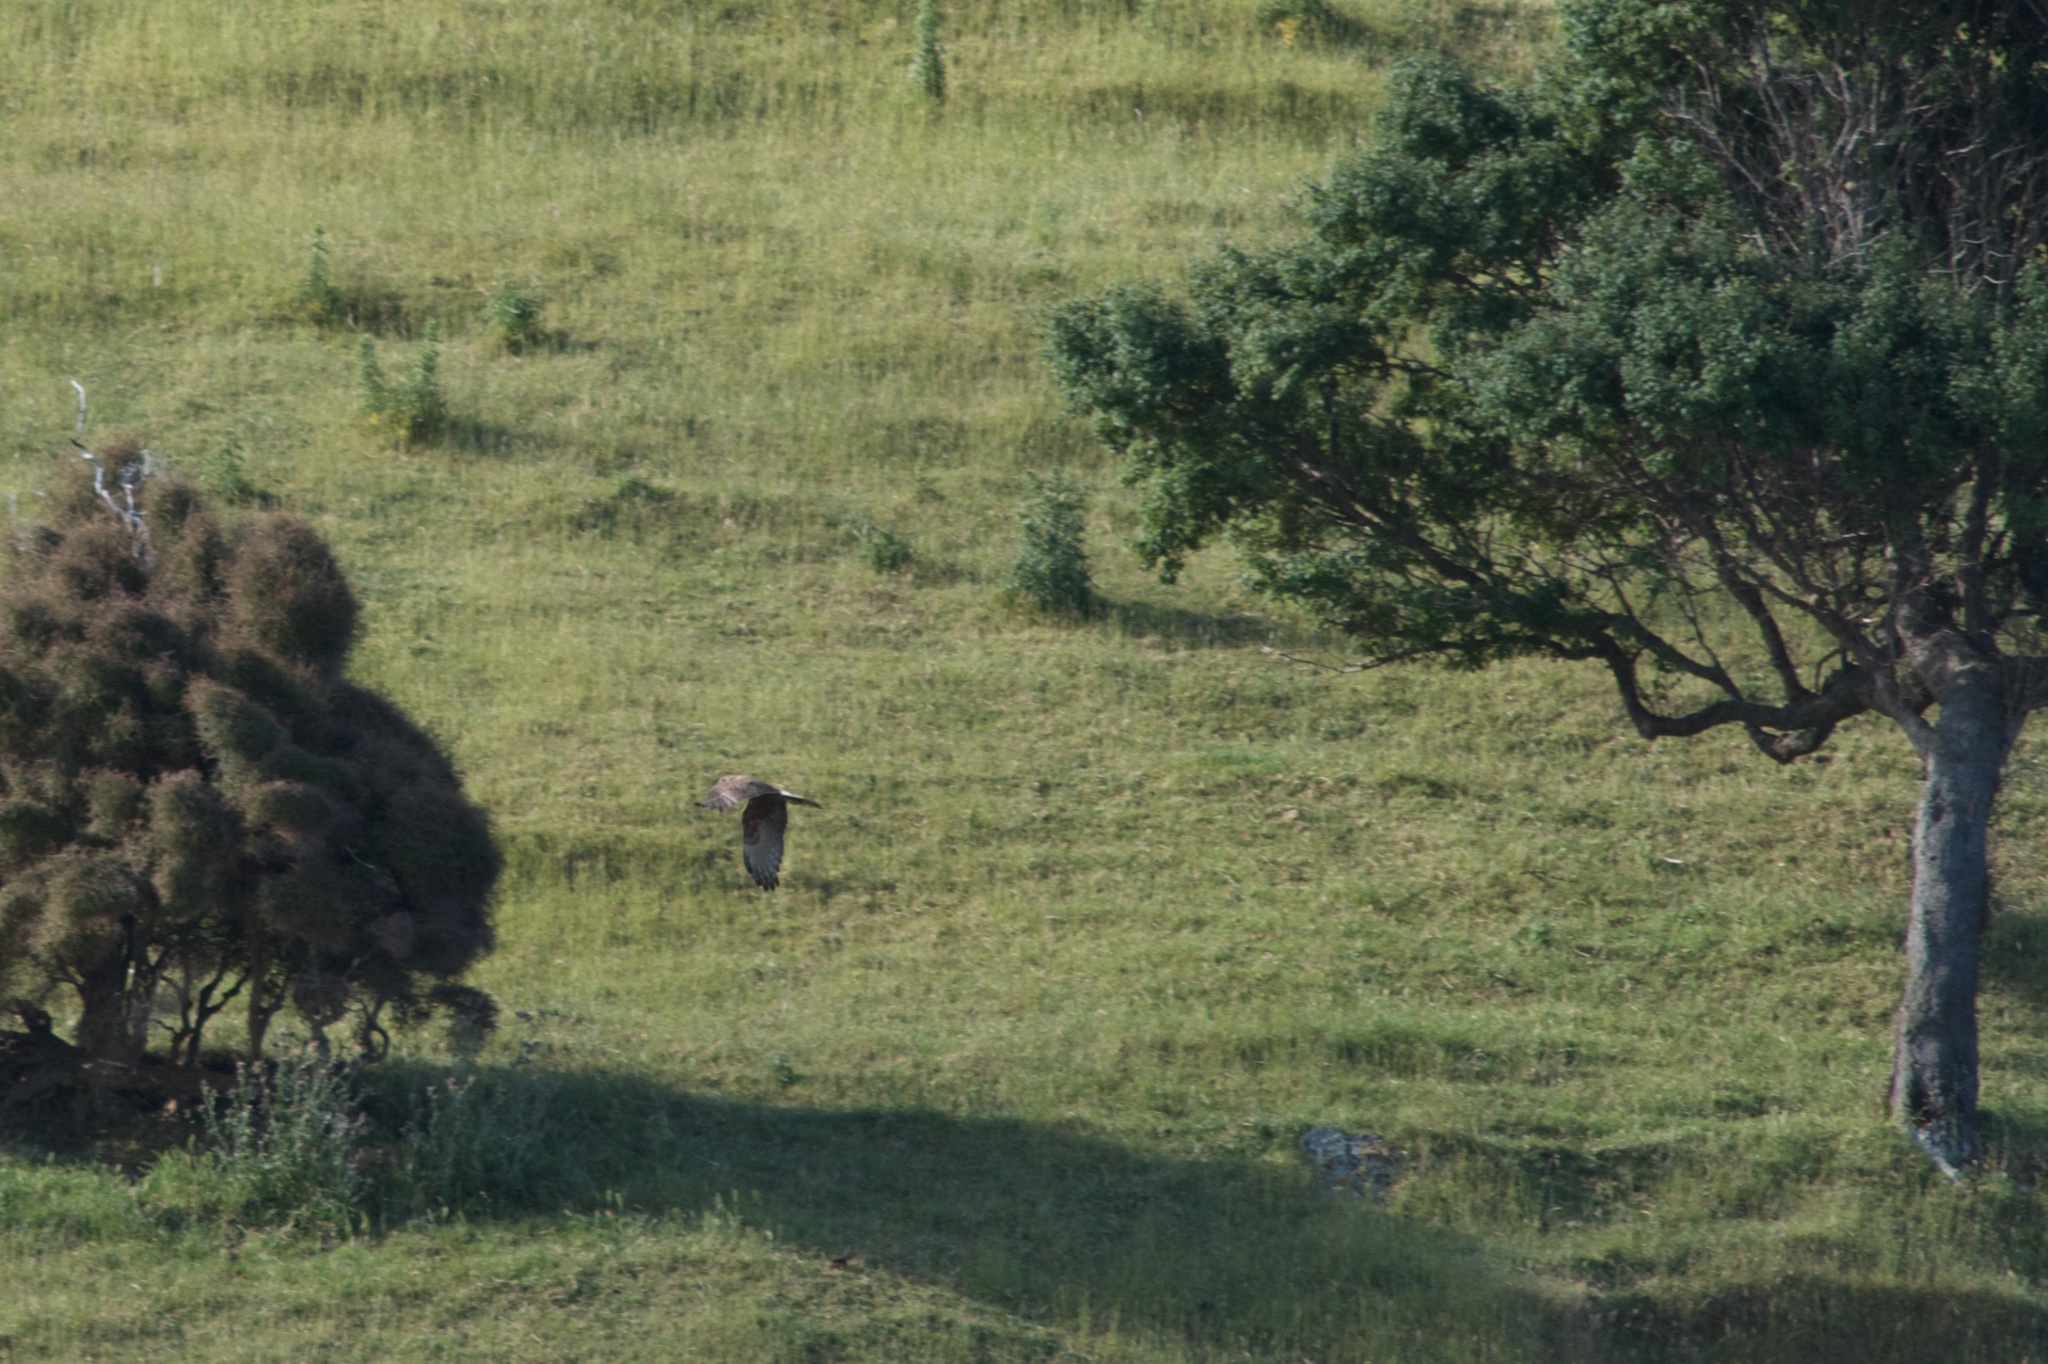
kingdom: Animalia
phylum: Chordata
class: Aves
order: Accipitriformes
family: Accipitridae
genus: Circus
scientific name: Circus approximans
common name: Swamp harrier
